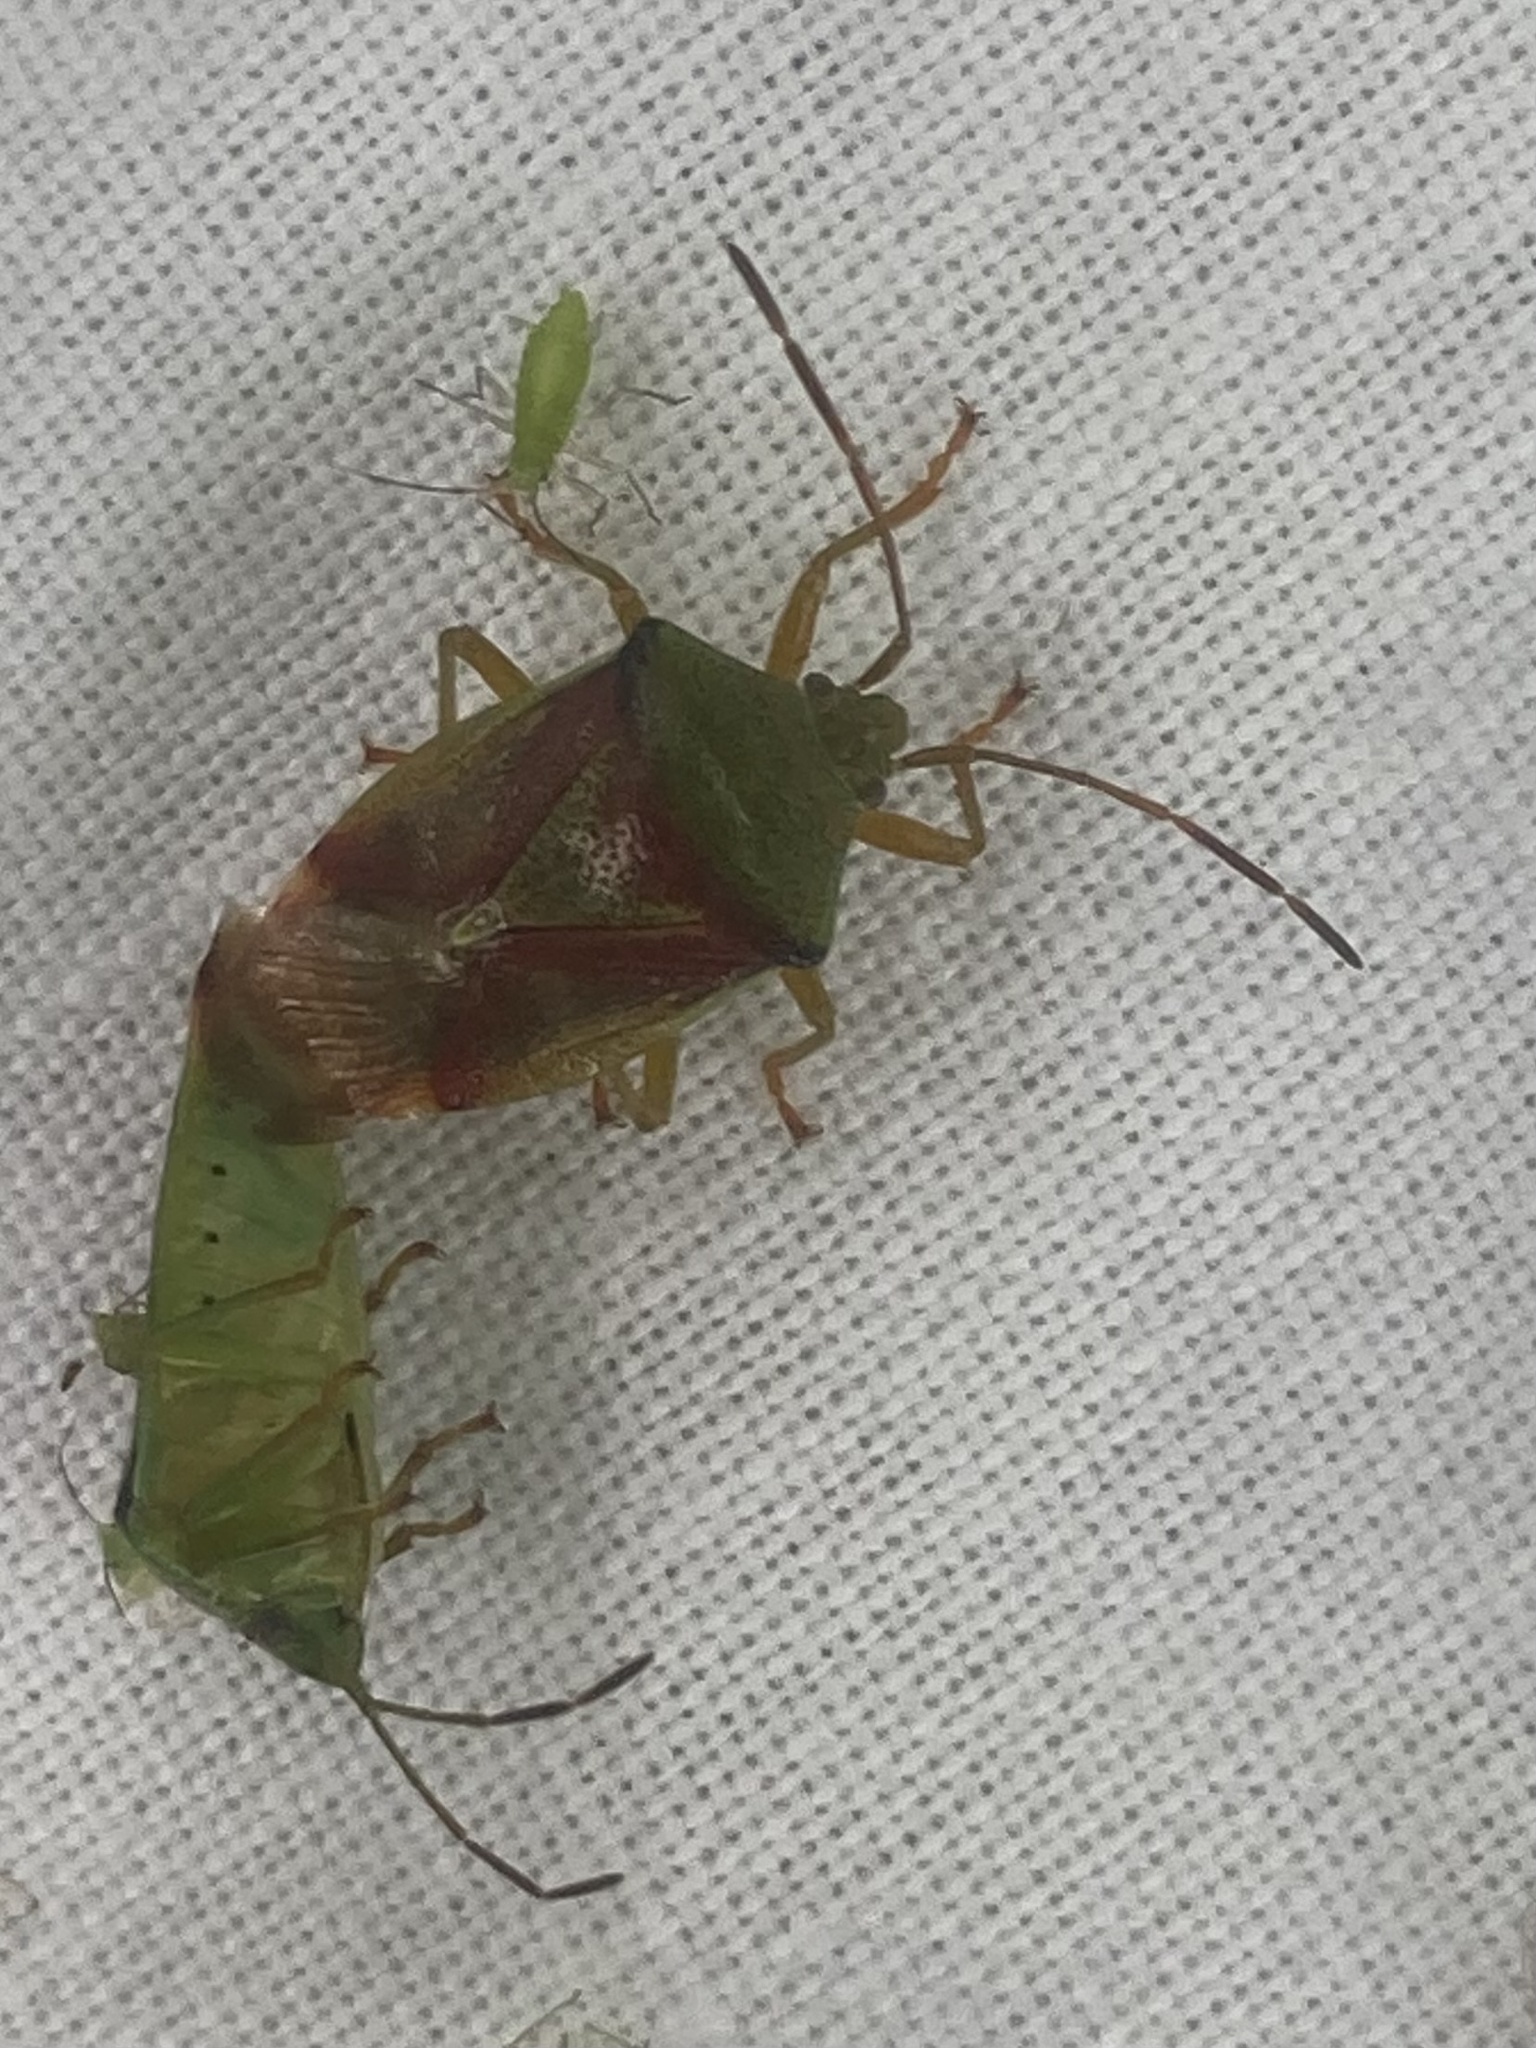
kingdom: Animalia
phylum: Arthropoda
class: Insecta
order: Hemiptera
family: Acanthosomatidae
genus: Elasmostethus
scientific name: Elasmostethus interstinctus
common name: Birch shieldbug
